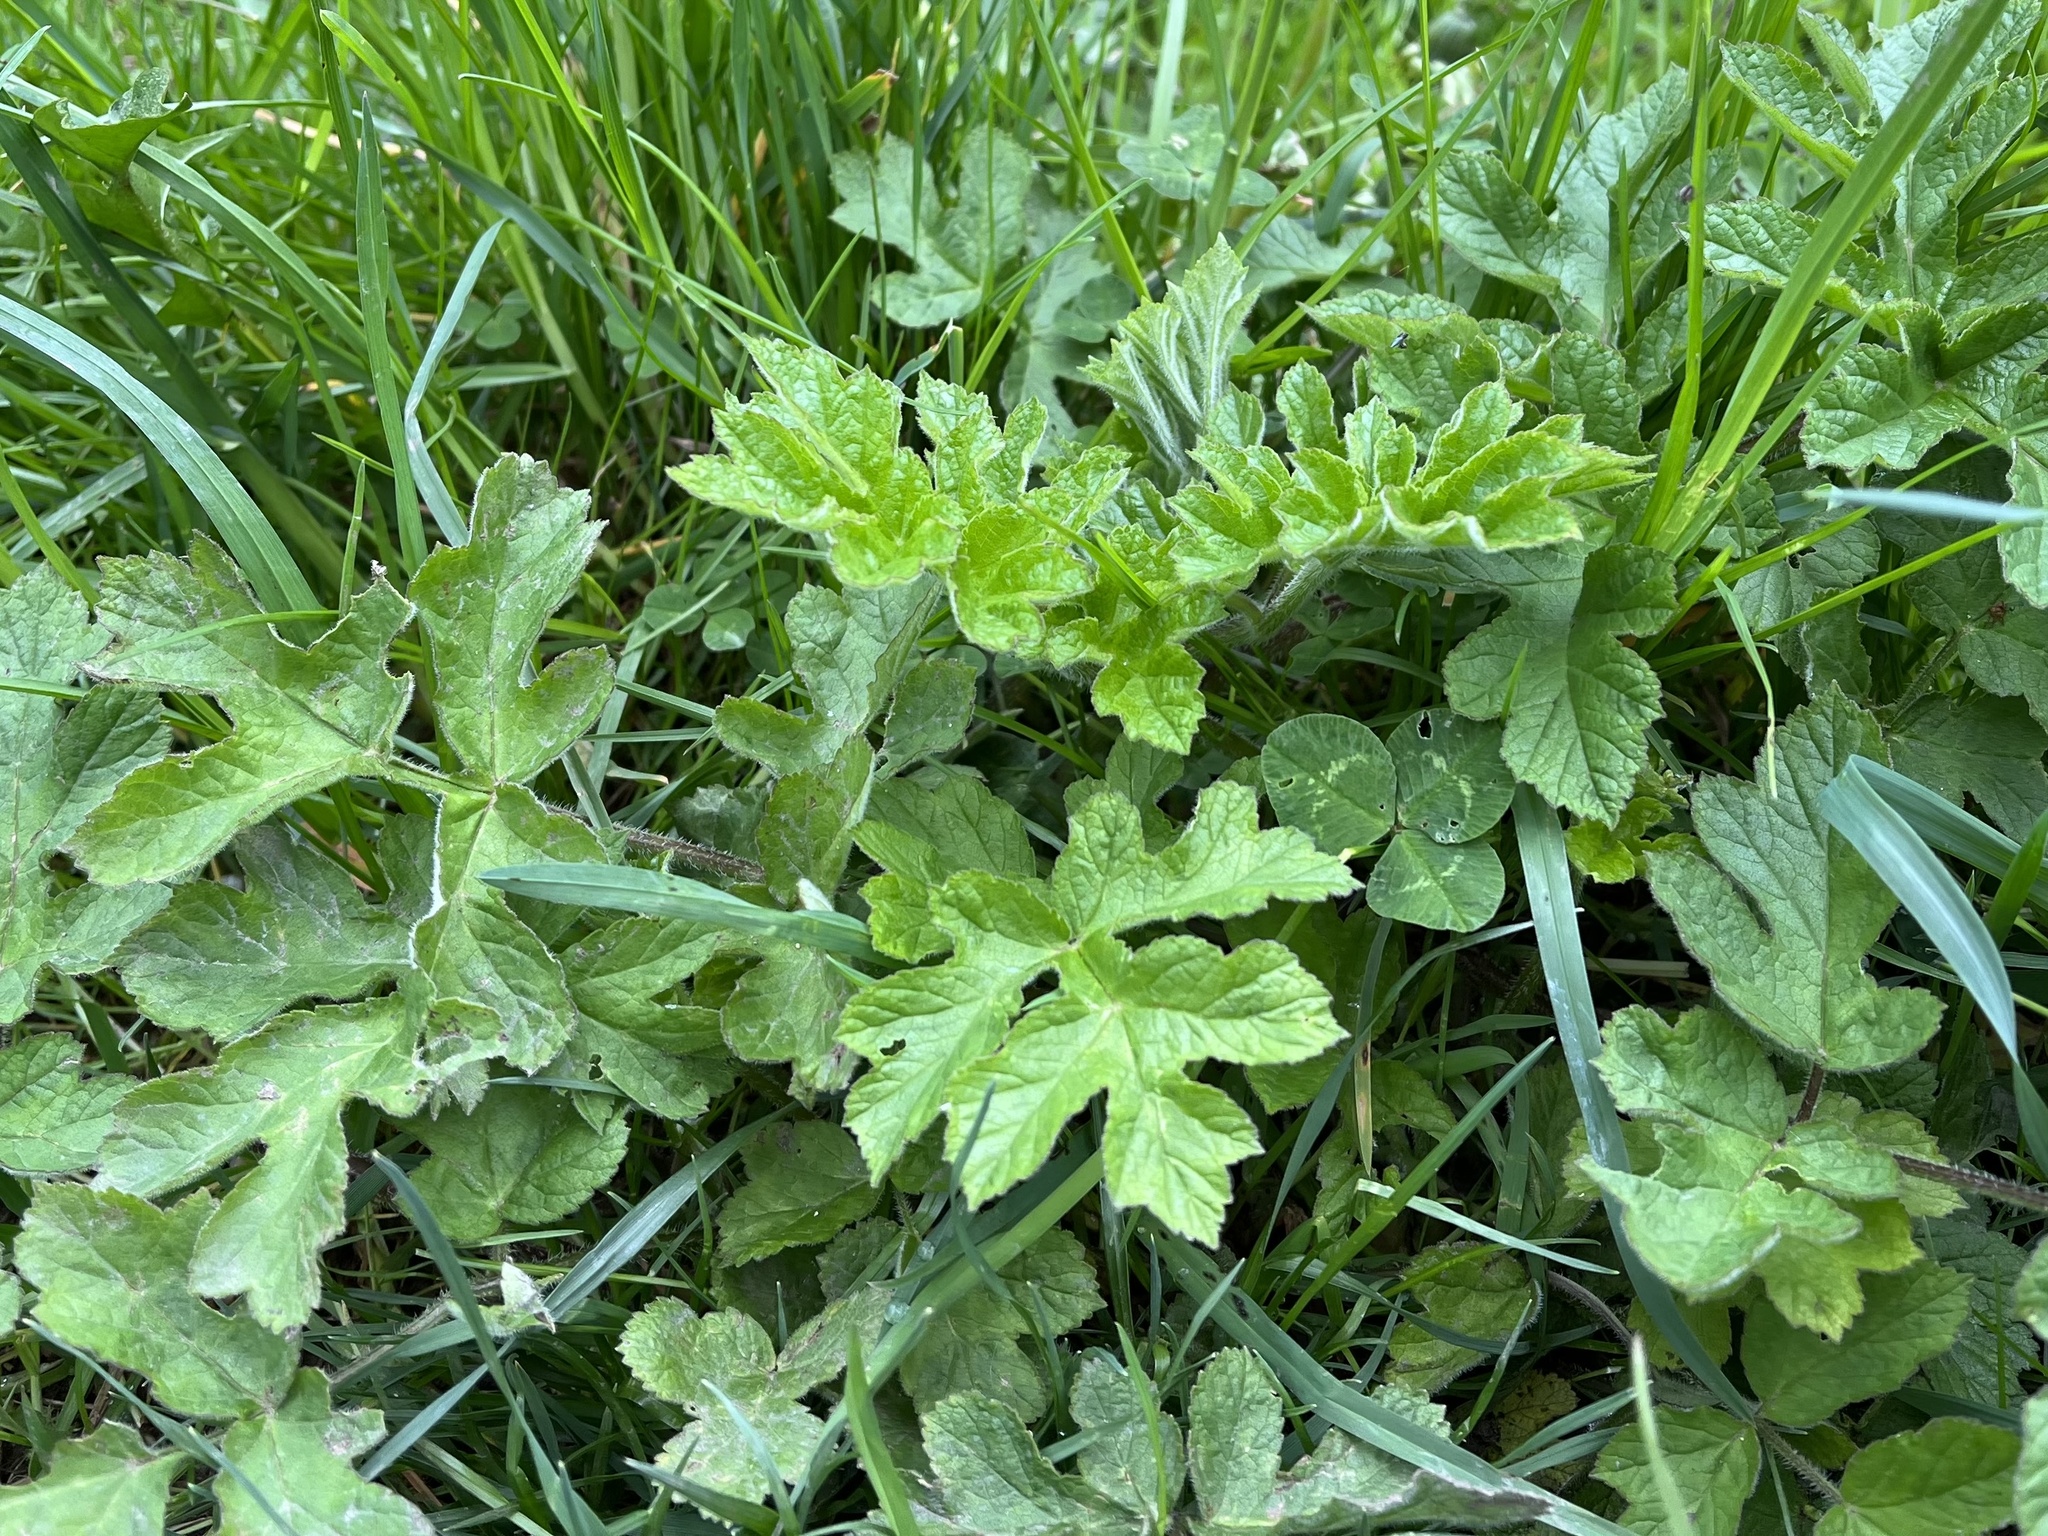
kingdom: Plantae
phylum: Tracheophyta
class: Magnoliopsida
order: Apiales
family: Apiaceae
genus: Heracleum
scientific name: Heracleum sphondylium
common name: Hogweed
